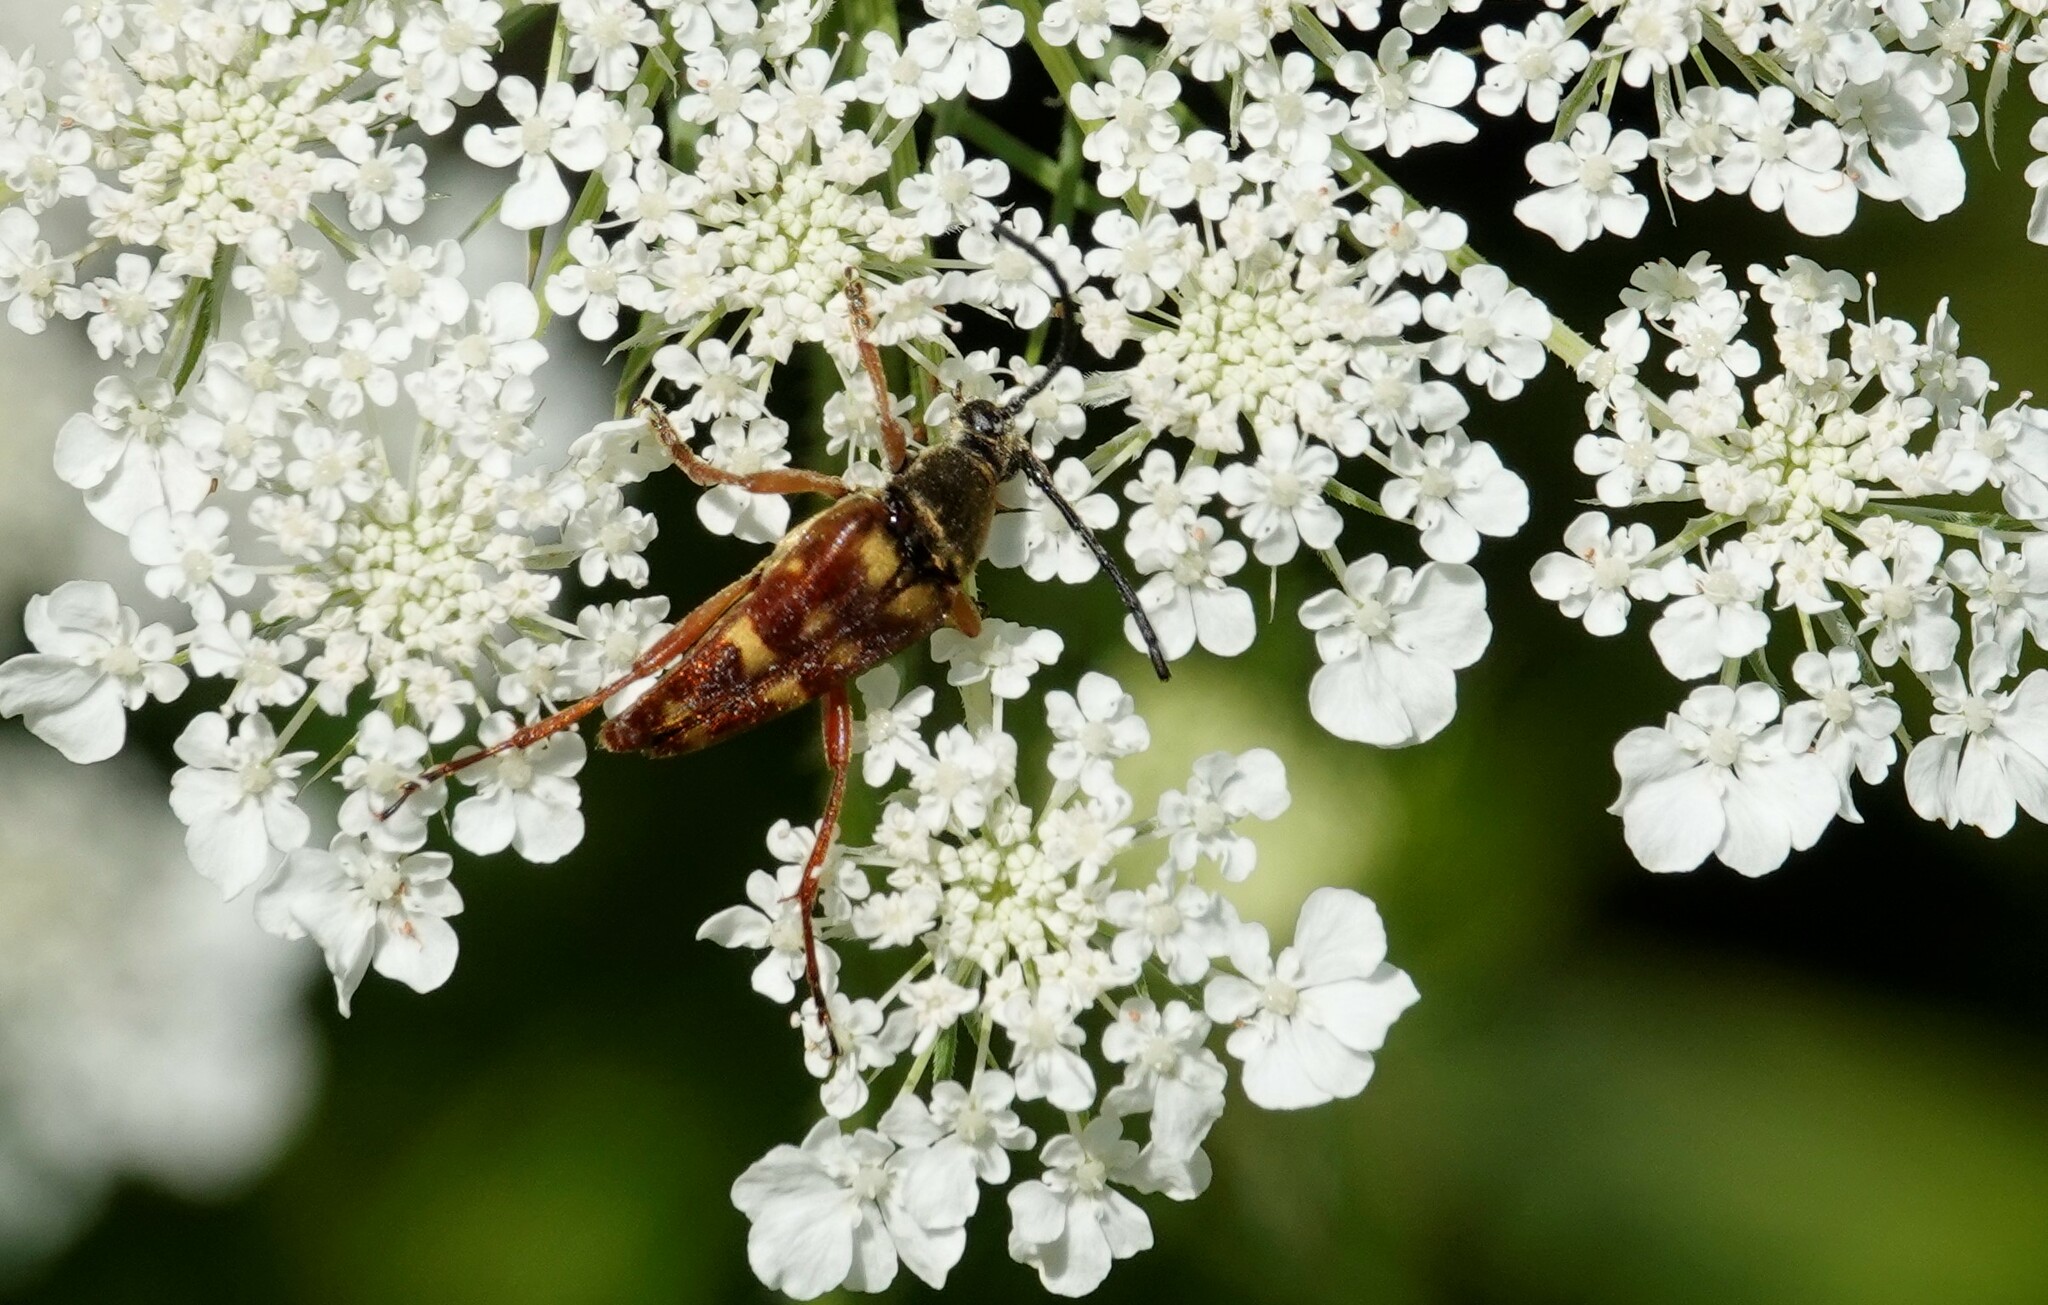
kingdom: Animalia
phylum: Arthropoda
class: Insecta
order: Coleoptera
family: Cerambycidae
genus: Typocerus
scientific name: Typocerus velutinus
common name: Banded longhorn beetle
